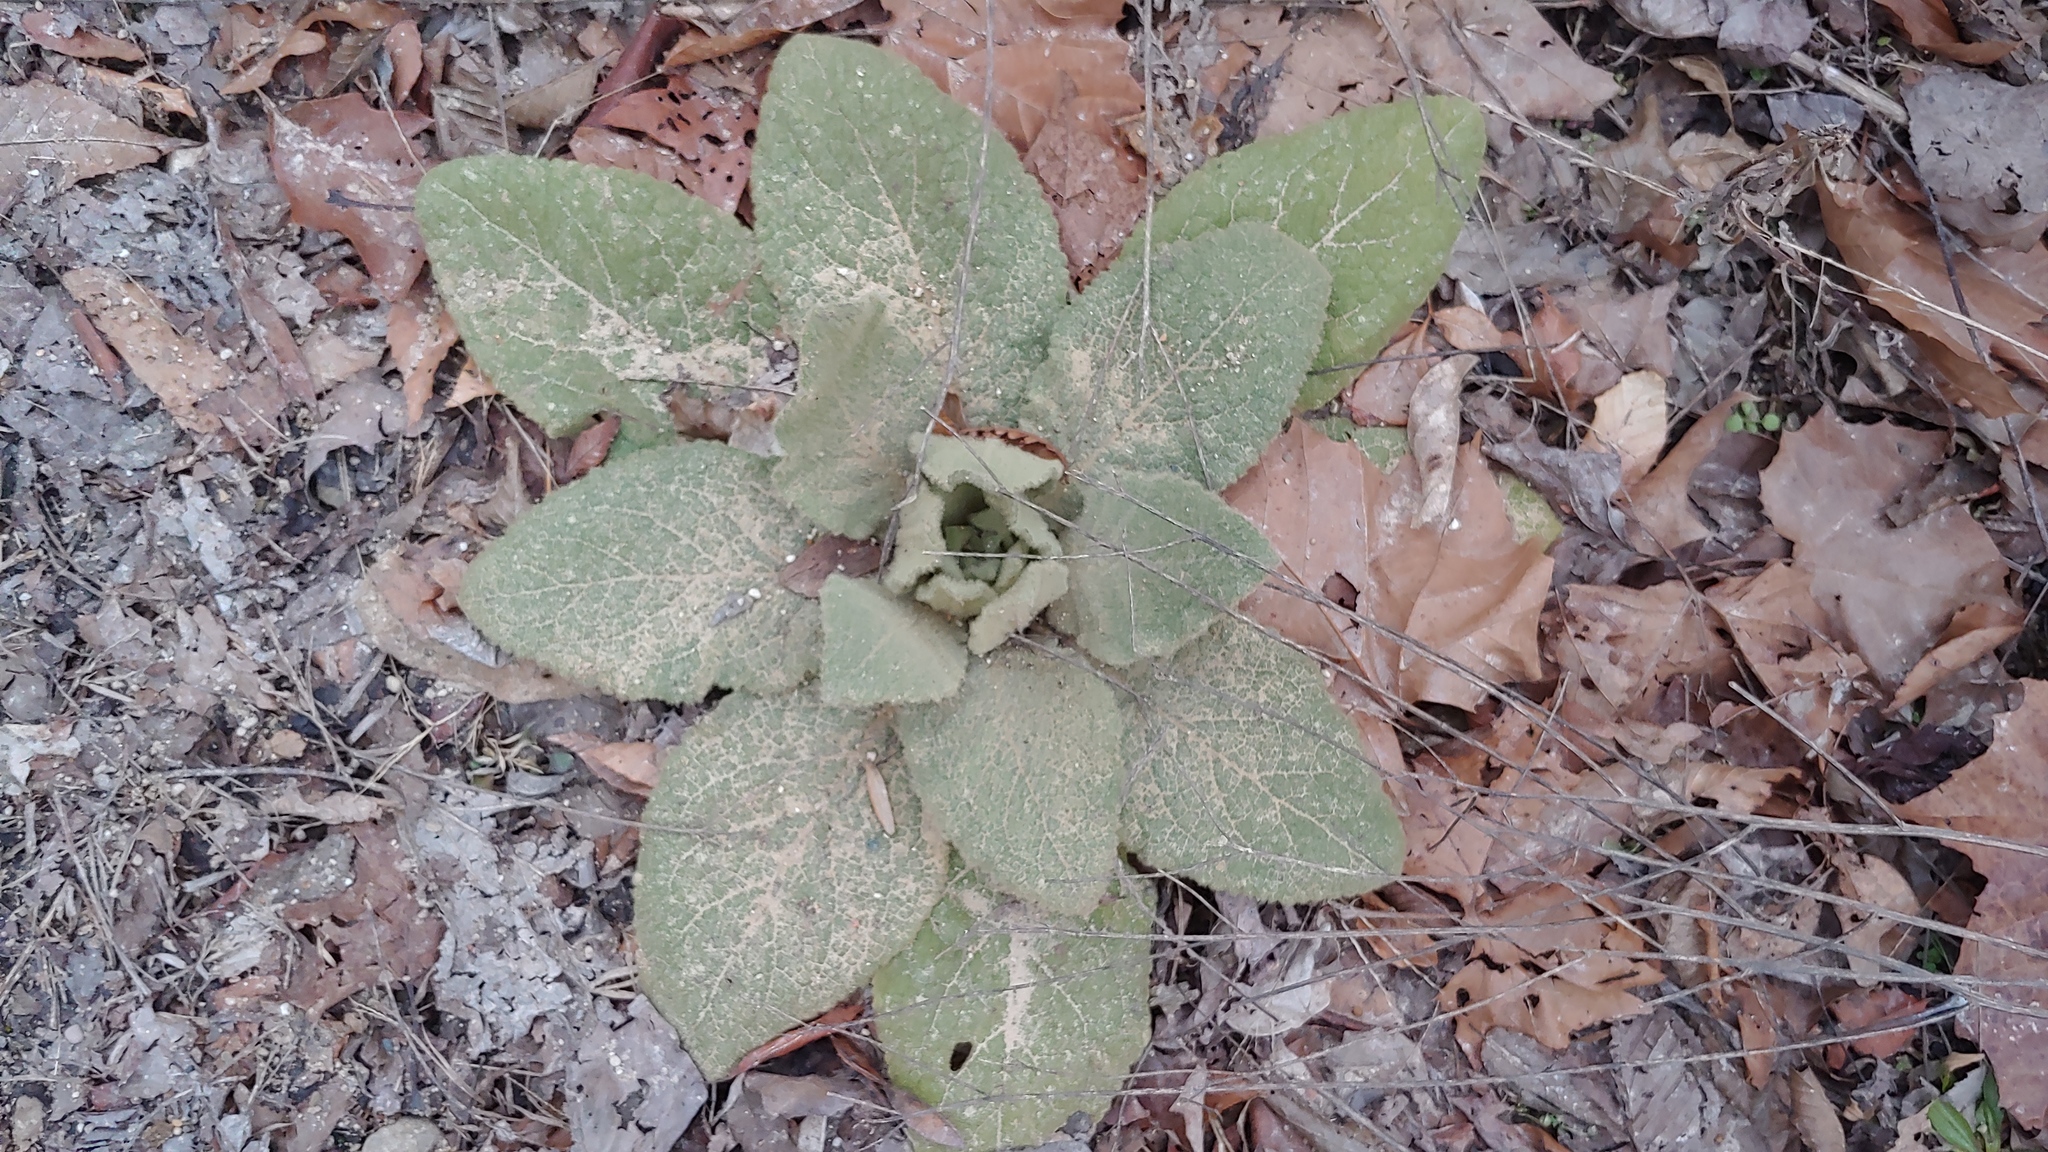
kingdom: Plantae
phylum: Tracheophyta
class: Magnoliopsida
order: Lamiales
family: Scrophulariaceae
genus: Verbascum
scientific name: Verbascum thapsus
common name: Common mullein
